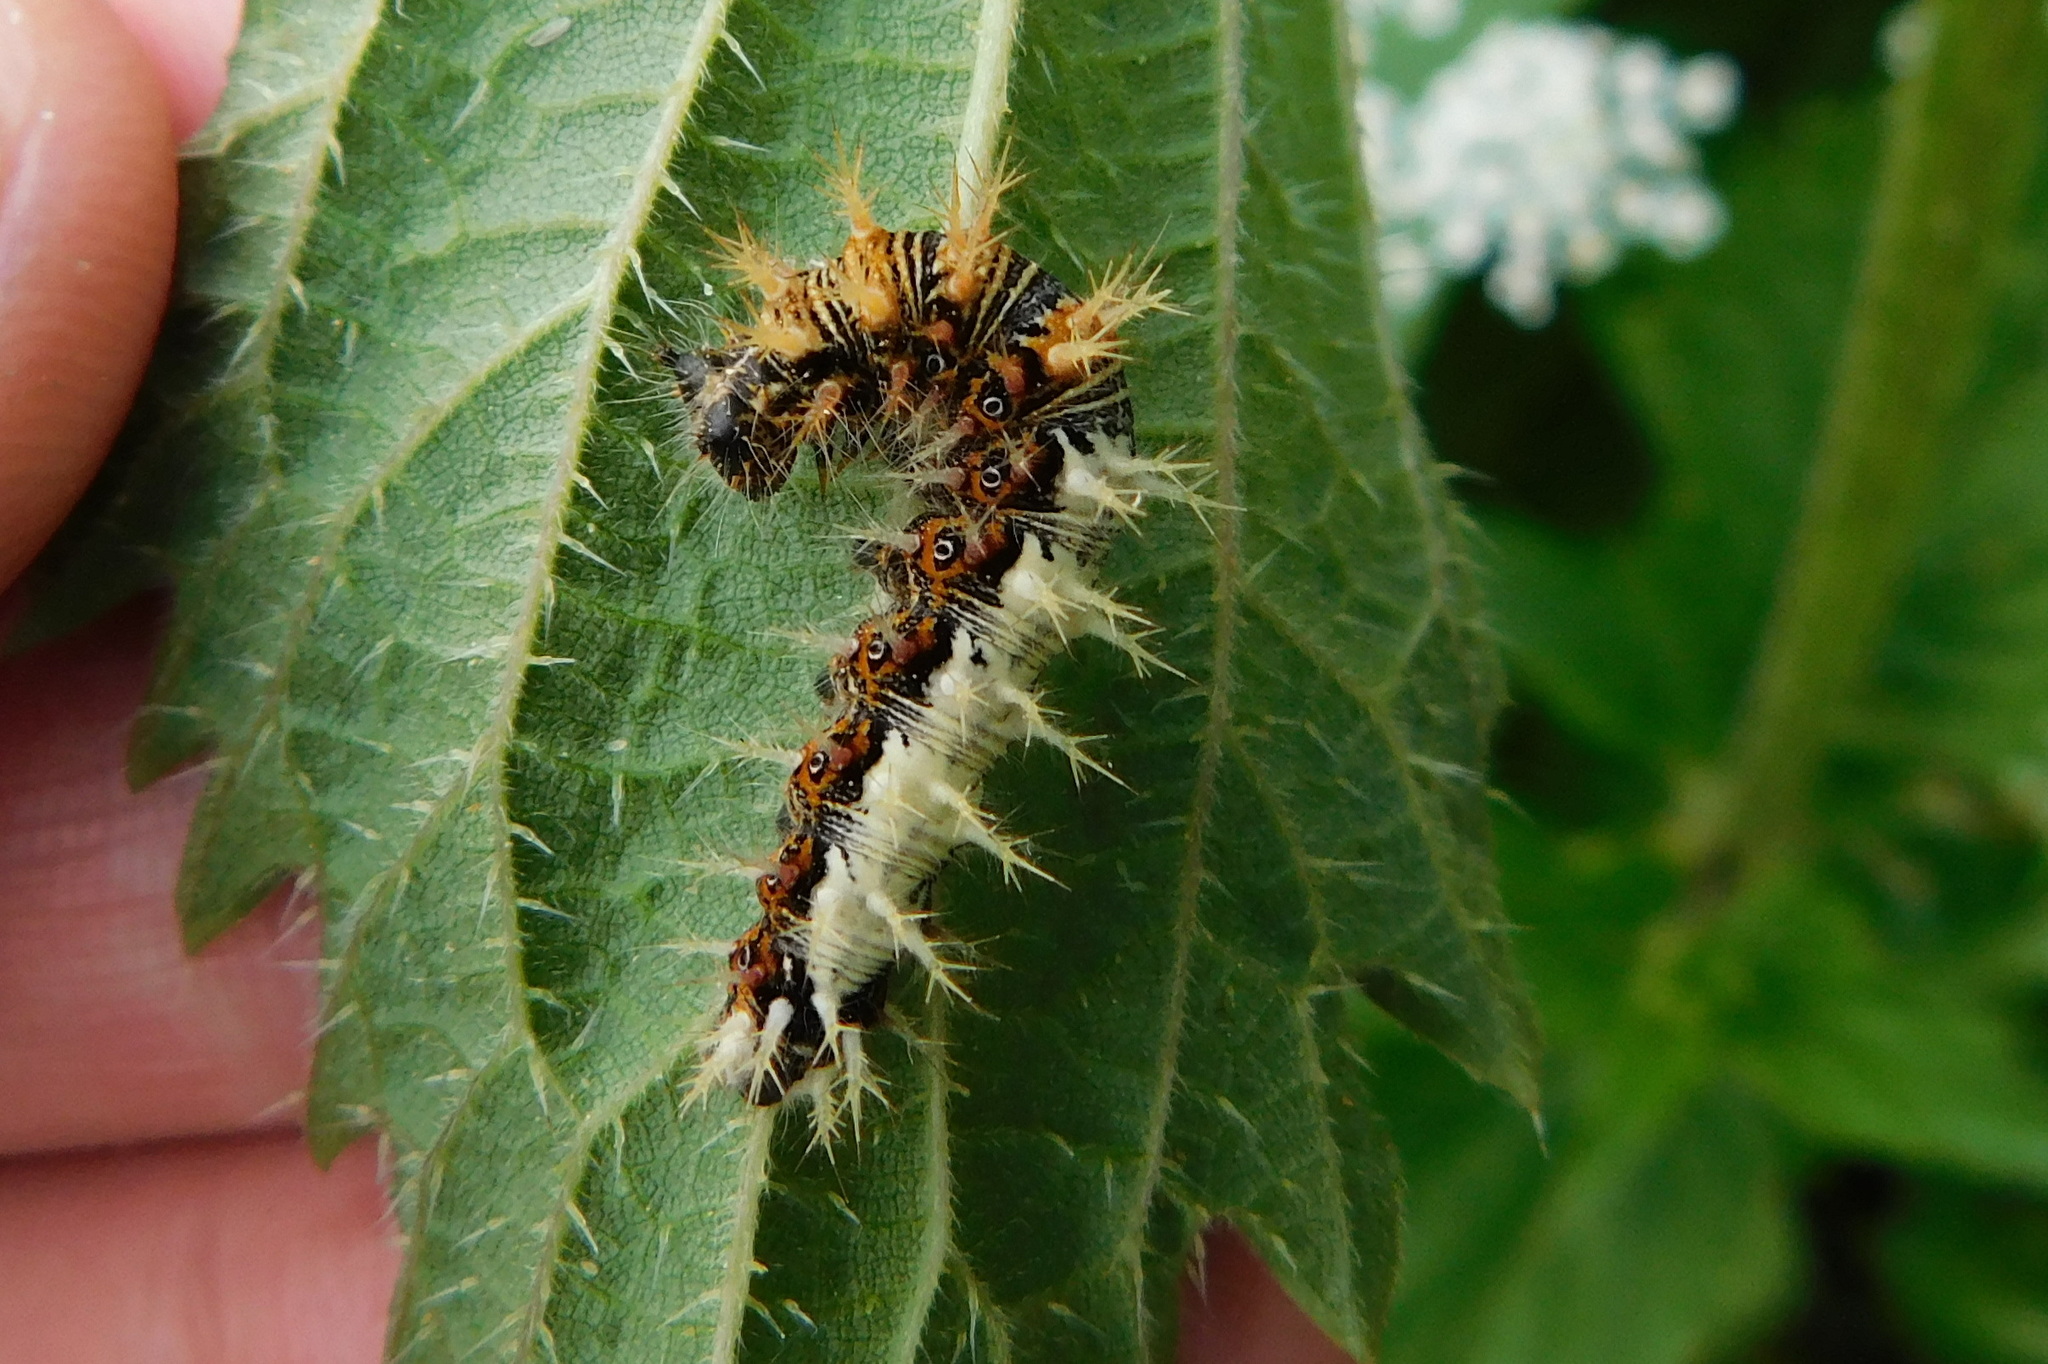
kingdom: Animalia
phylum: Arthropoda
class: Insecta
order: Lepidoptera
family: Nymphalidae
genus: Polygonia
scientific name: Polygonia c-album
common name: Comma
